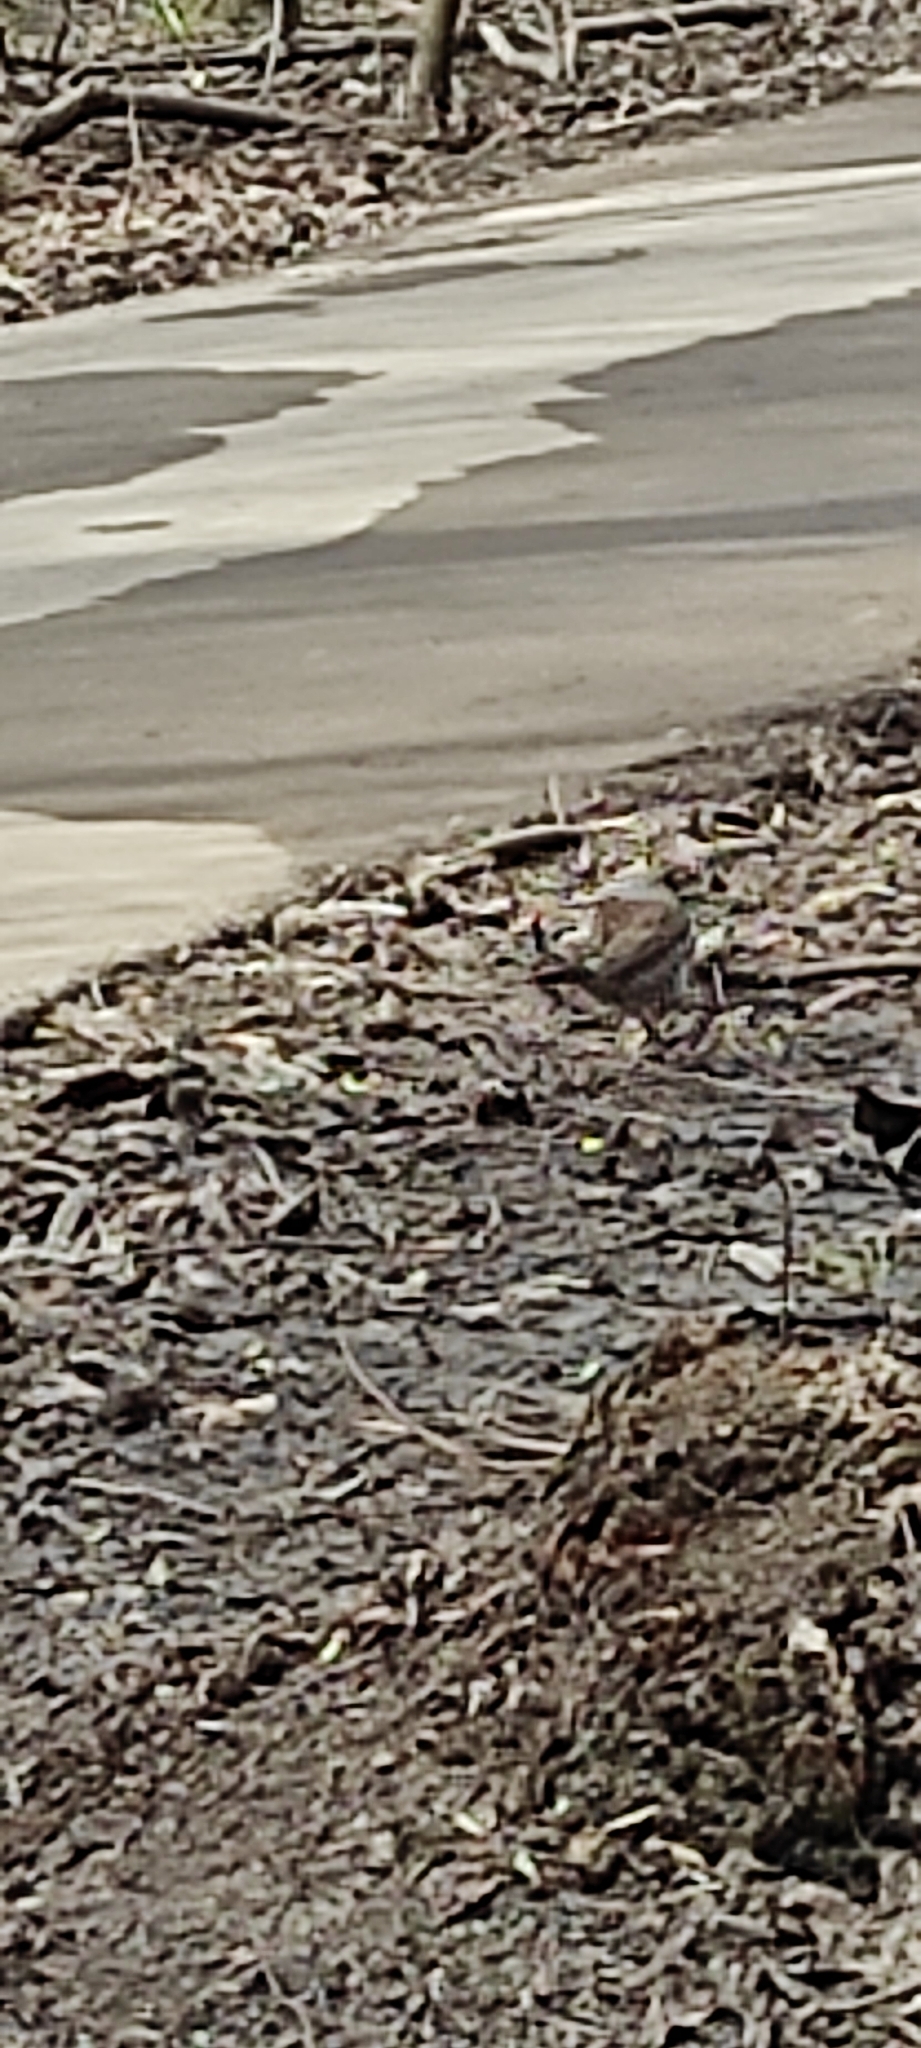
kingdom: Animalia
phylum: Chordata
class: Aves
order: Passeriformes
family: Turdidae
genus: Turdus
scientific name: Turdus pilaris
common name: Fieldfare
